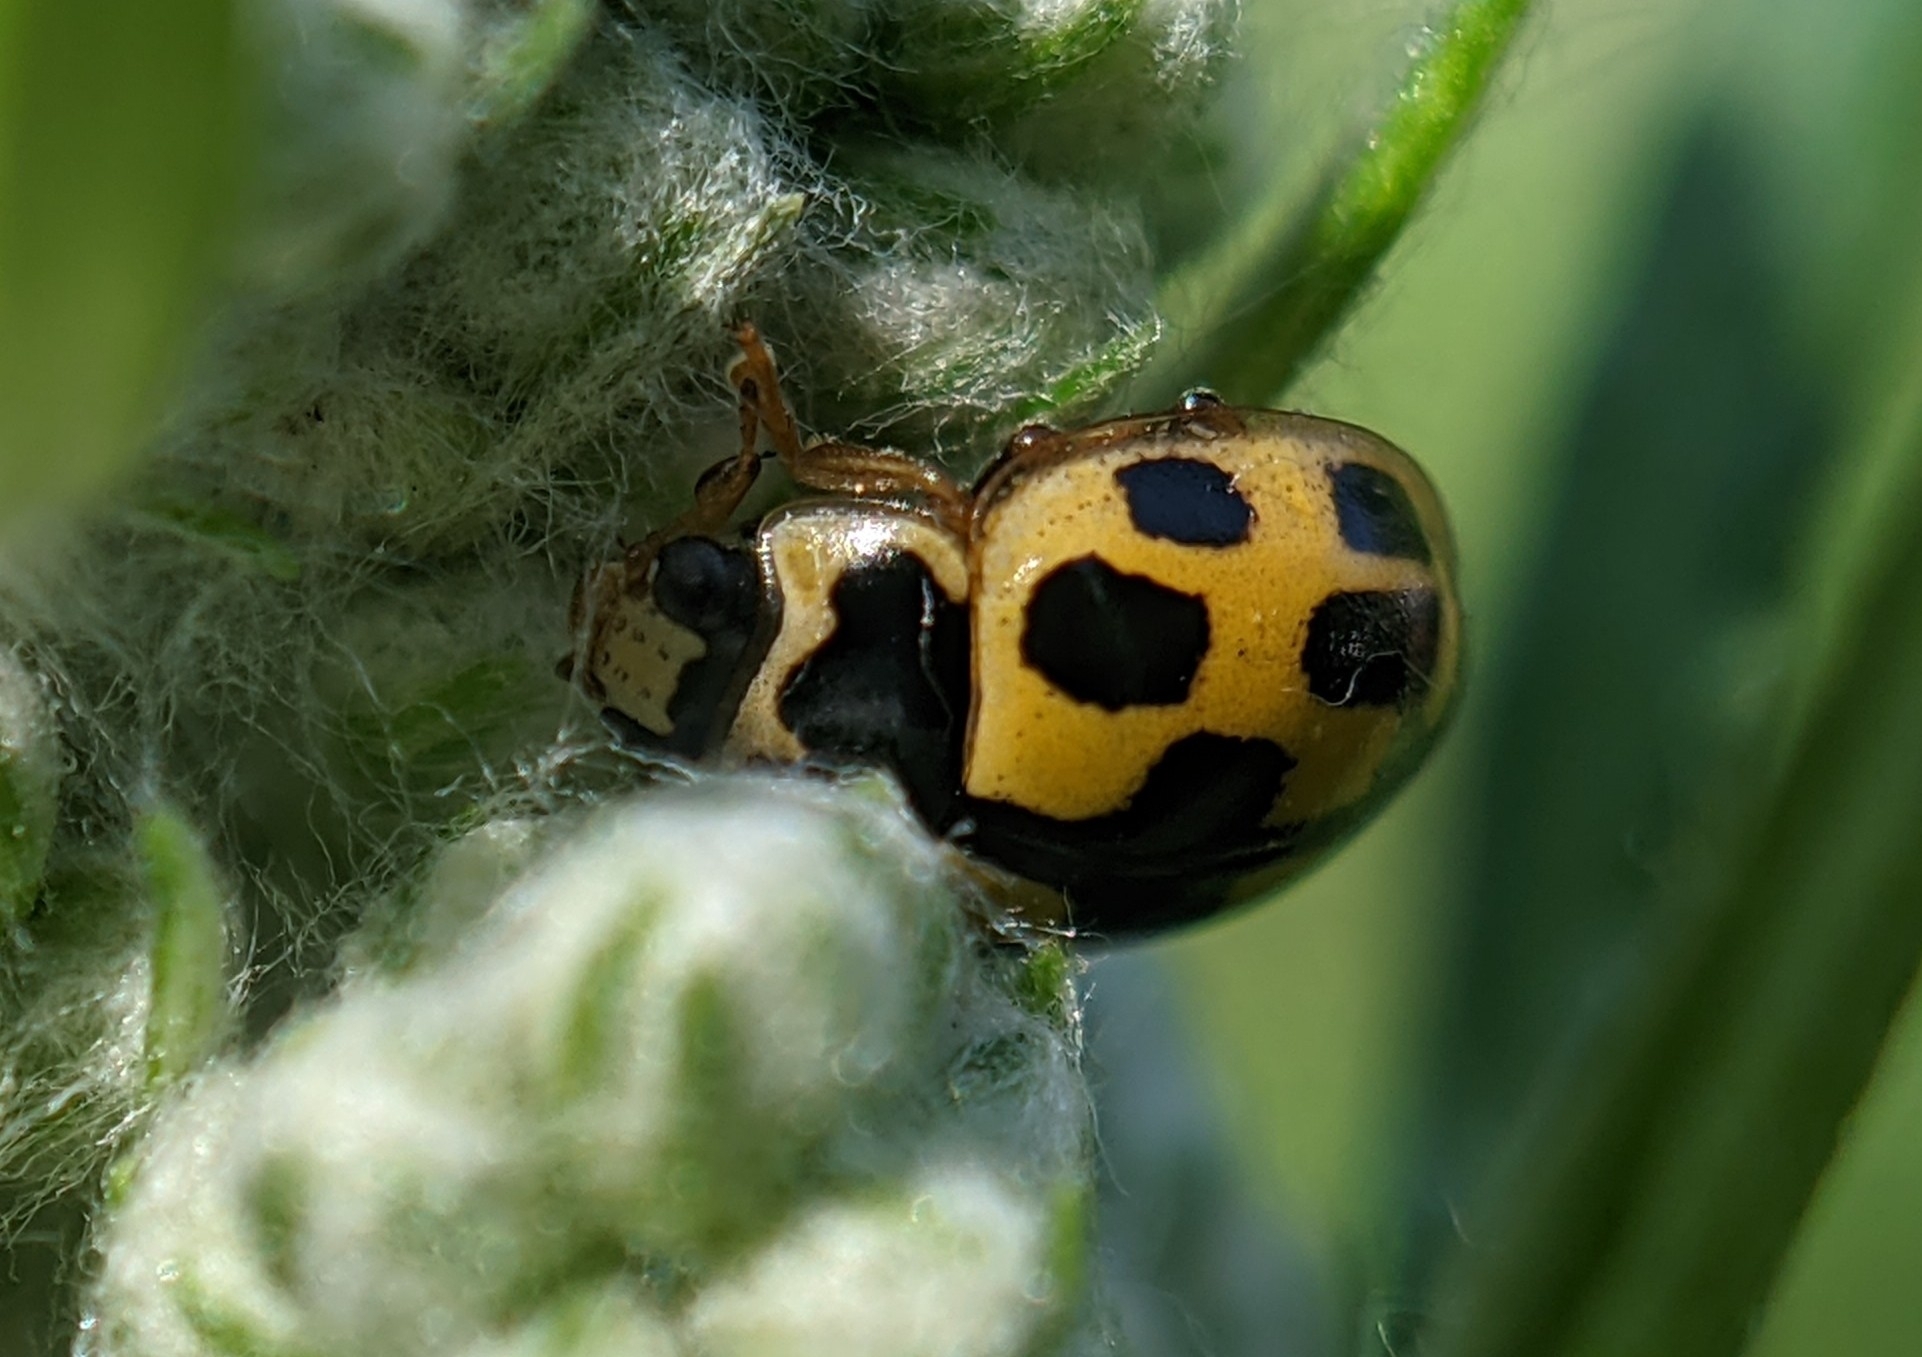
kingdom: Animalia
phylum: Arthropoda
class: Insecta
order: Coleoptera
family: Coccinellidae
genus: Propylaea
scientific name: Propylaea quatuordecimpunctata
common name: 14-spotted ladybird beetle
